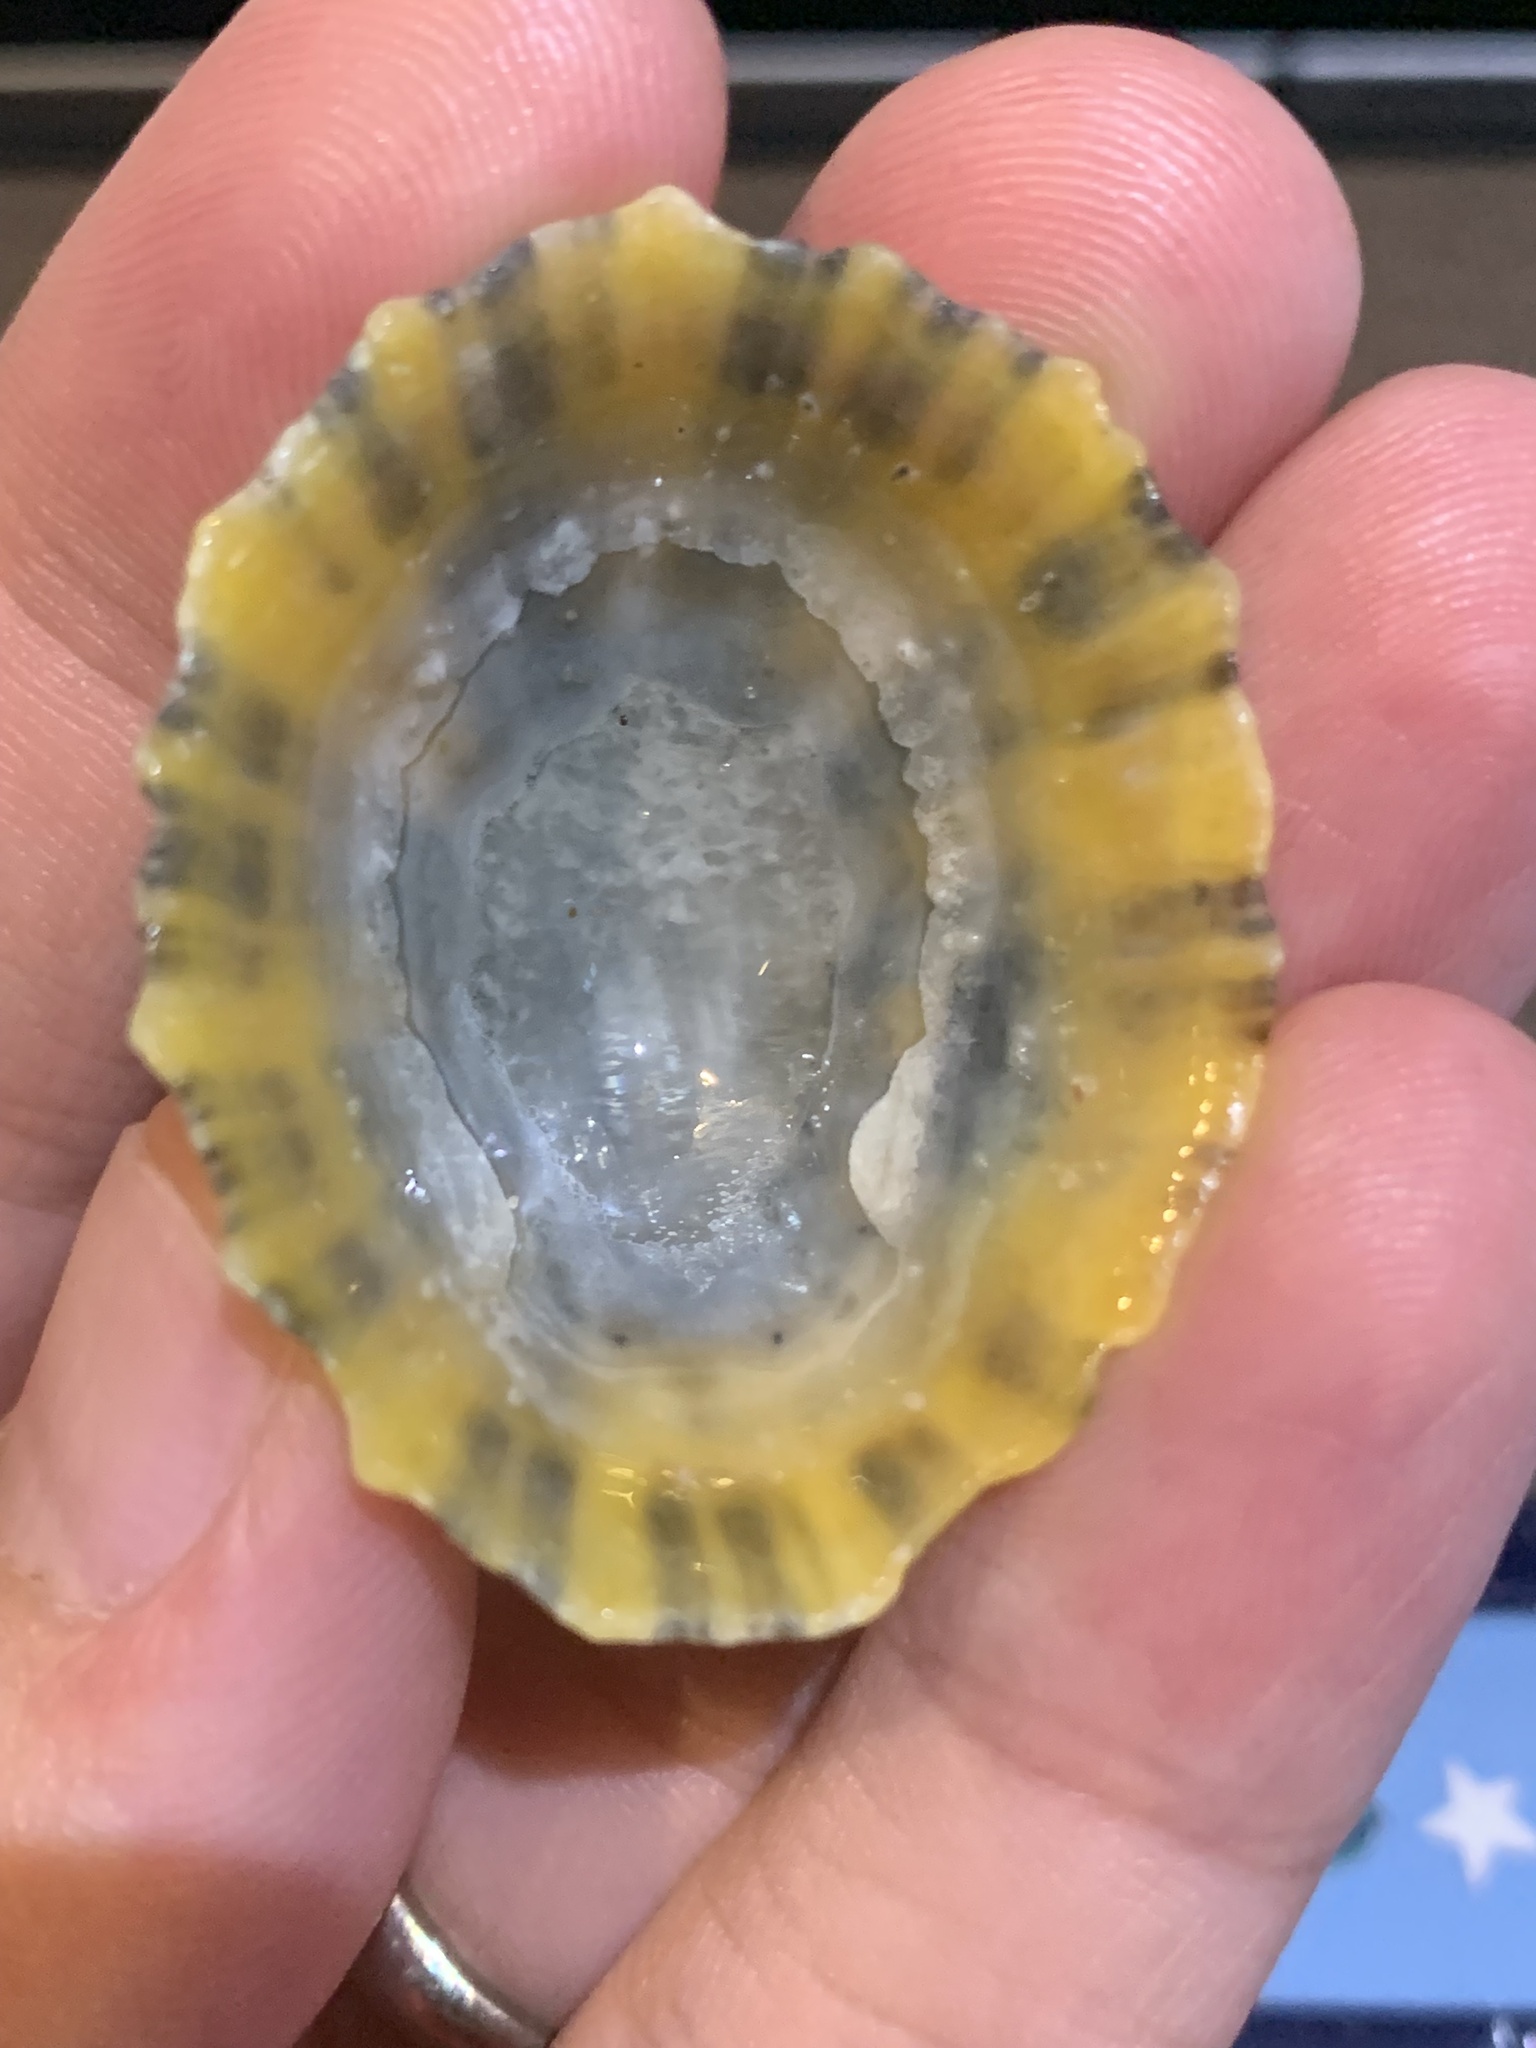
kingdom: Animalia
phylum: Mollusca
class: Gastropoda
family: Patellidae
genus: Patella
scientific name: Patella
